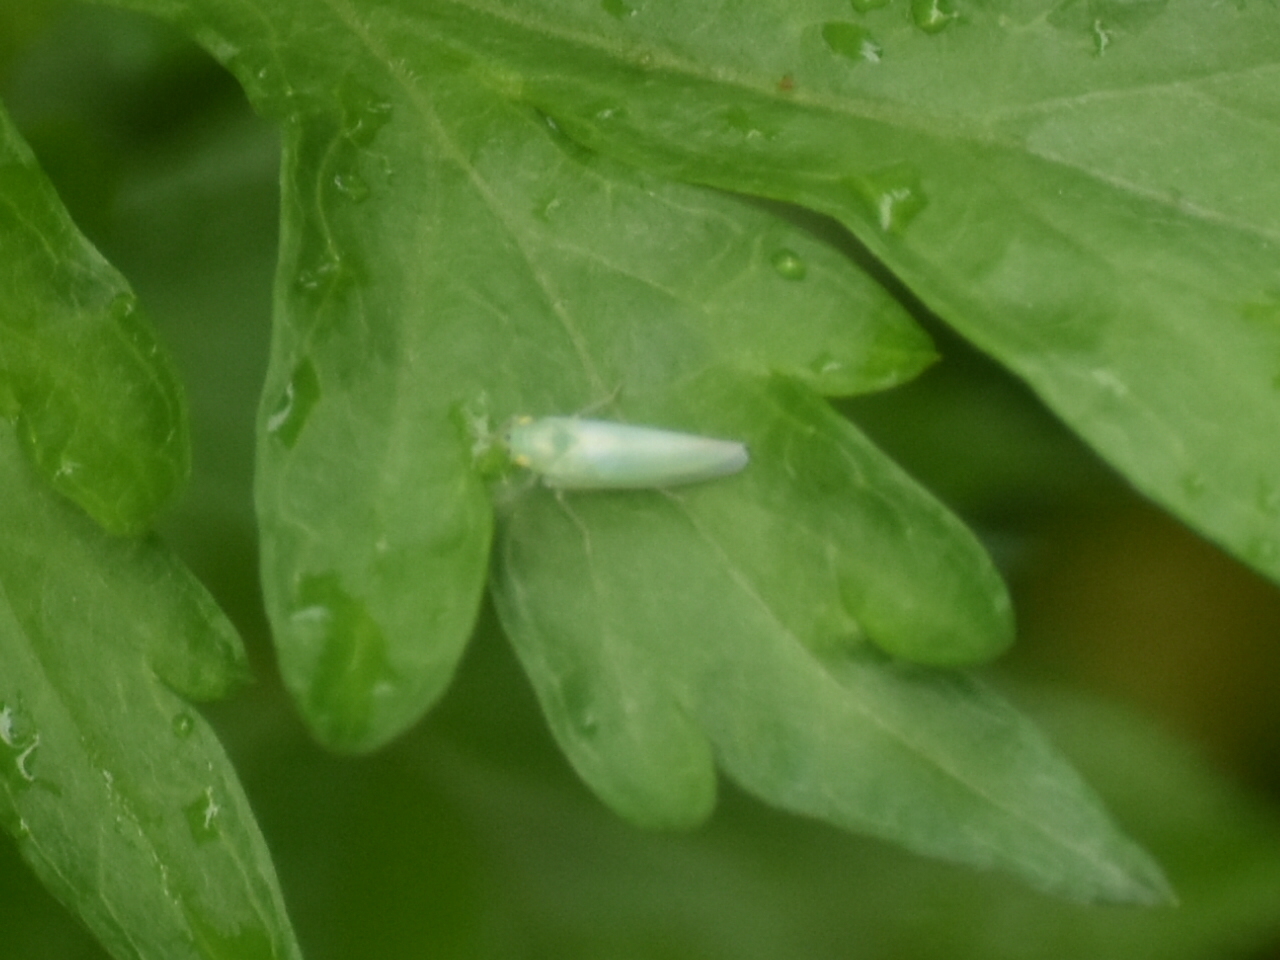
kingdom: Animalia
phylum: Arthropoda
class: Insecta
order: Hemiptera
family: Cicadellidae
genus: Pagaronia
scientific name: Pagaronia minor
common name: Leafhopper
